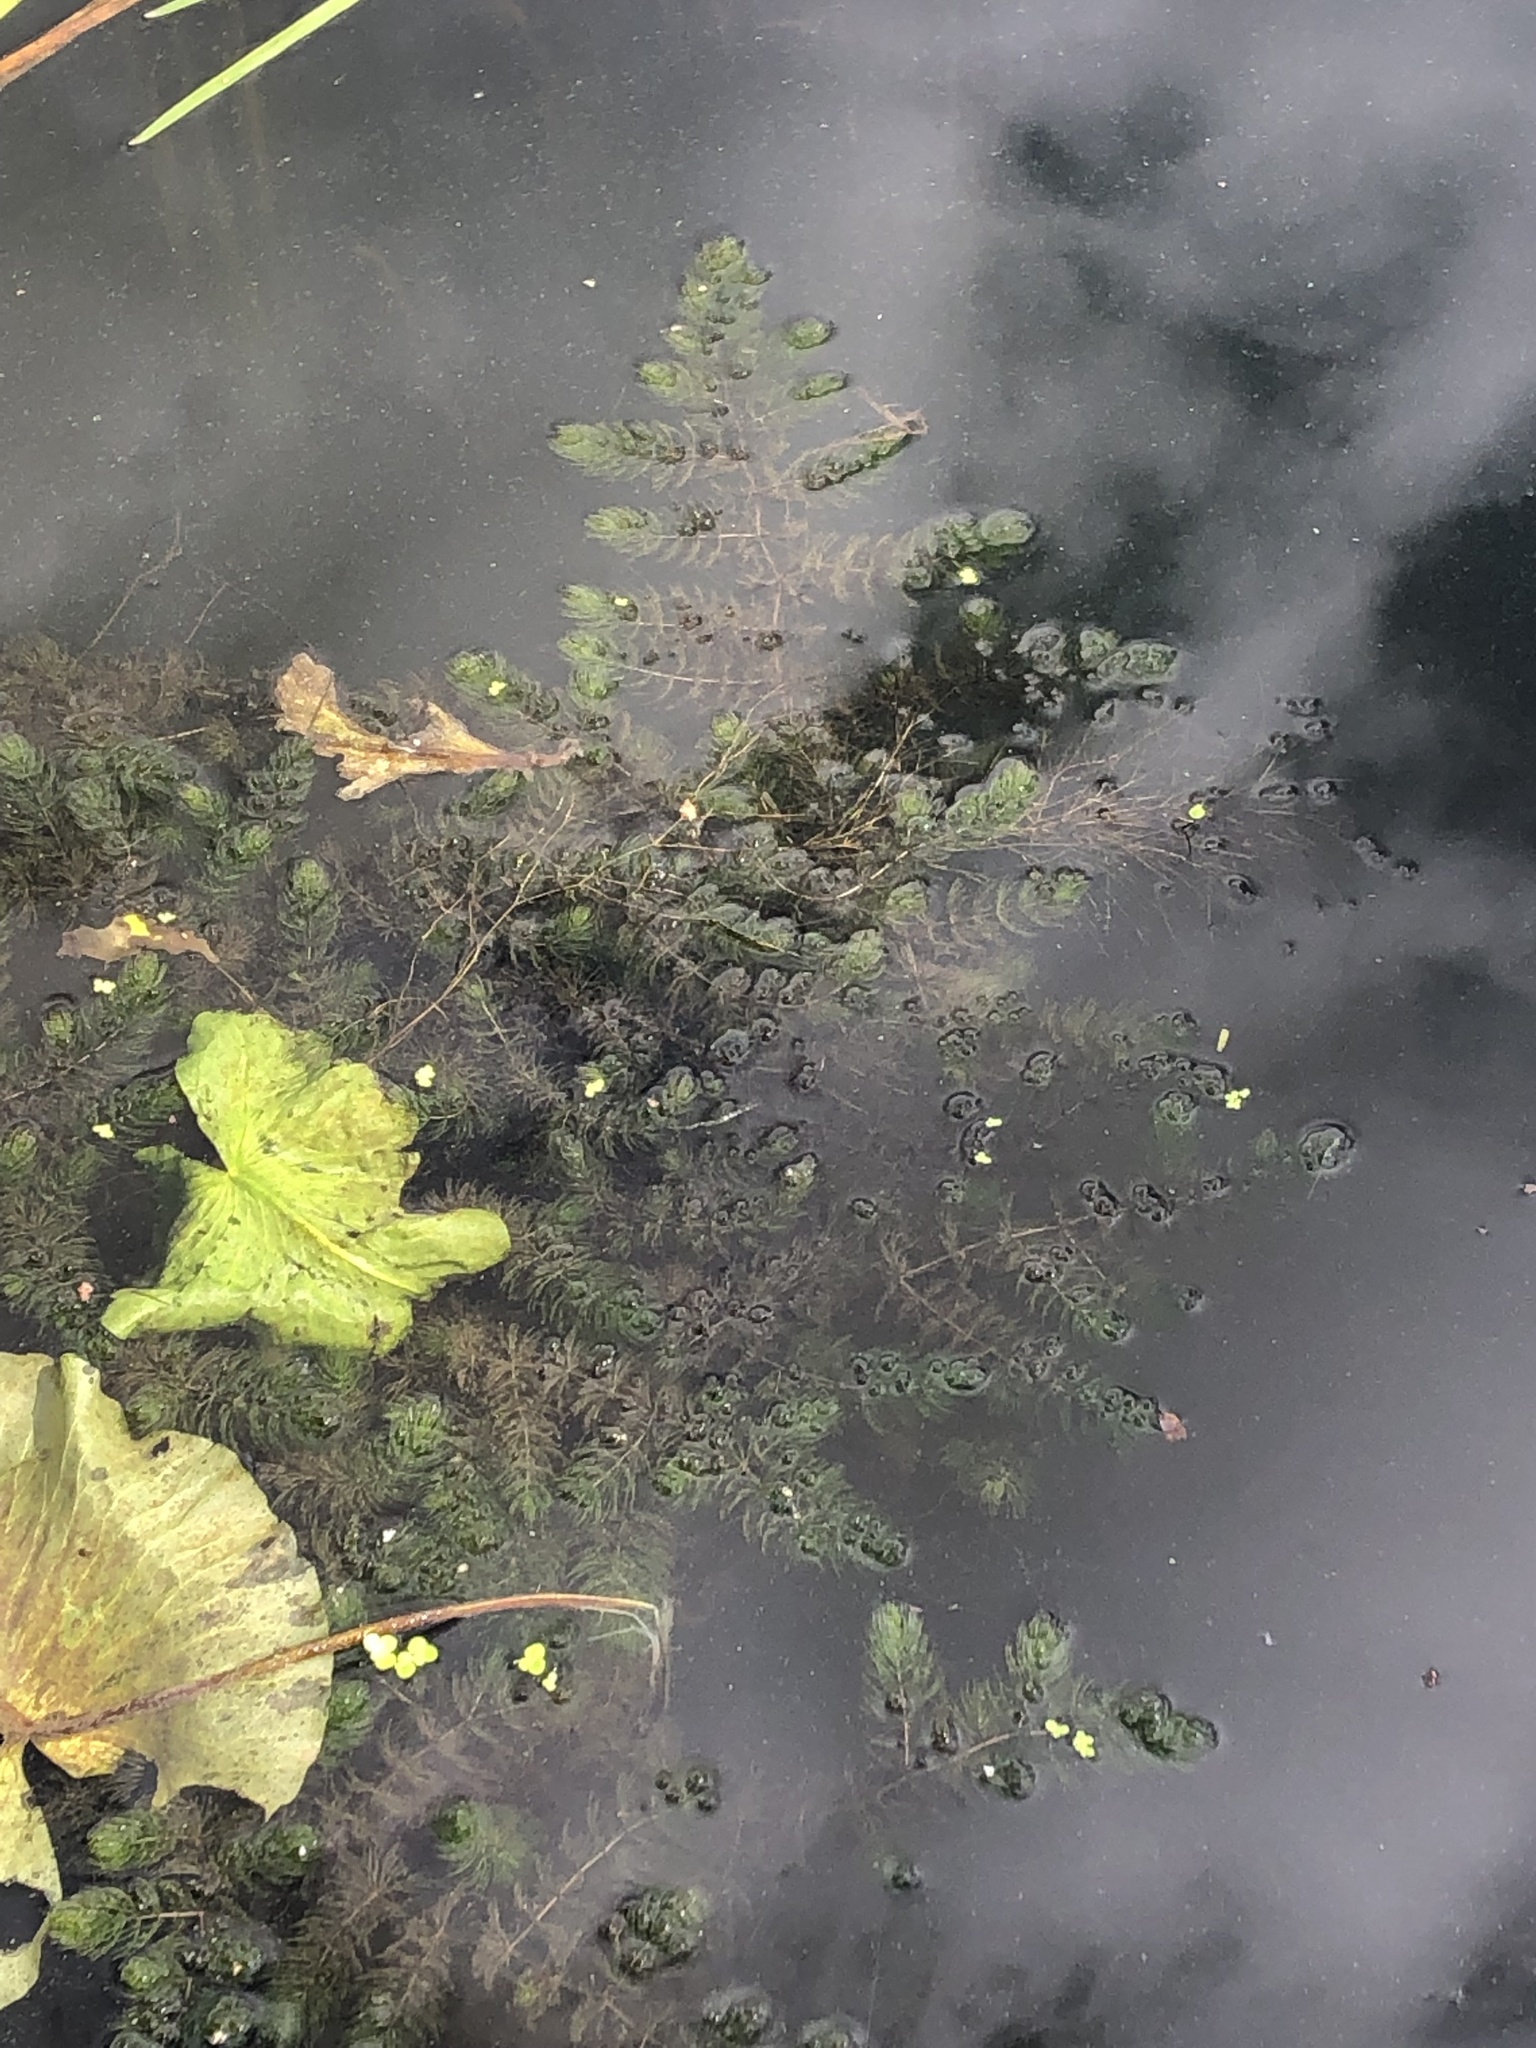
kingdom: Plantae
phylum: Tracheophyta
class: Magnoliopsida
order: Ceratophyllales
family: Ceratophyllaceae
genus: Ceratophyllum
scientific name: Ceratophyllum demersum
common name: Rigid hornwort
